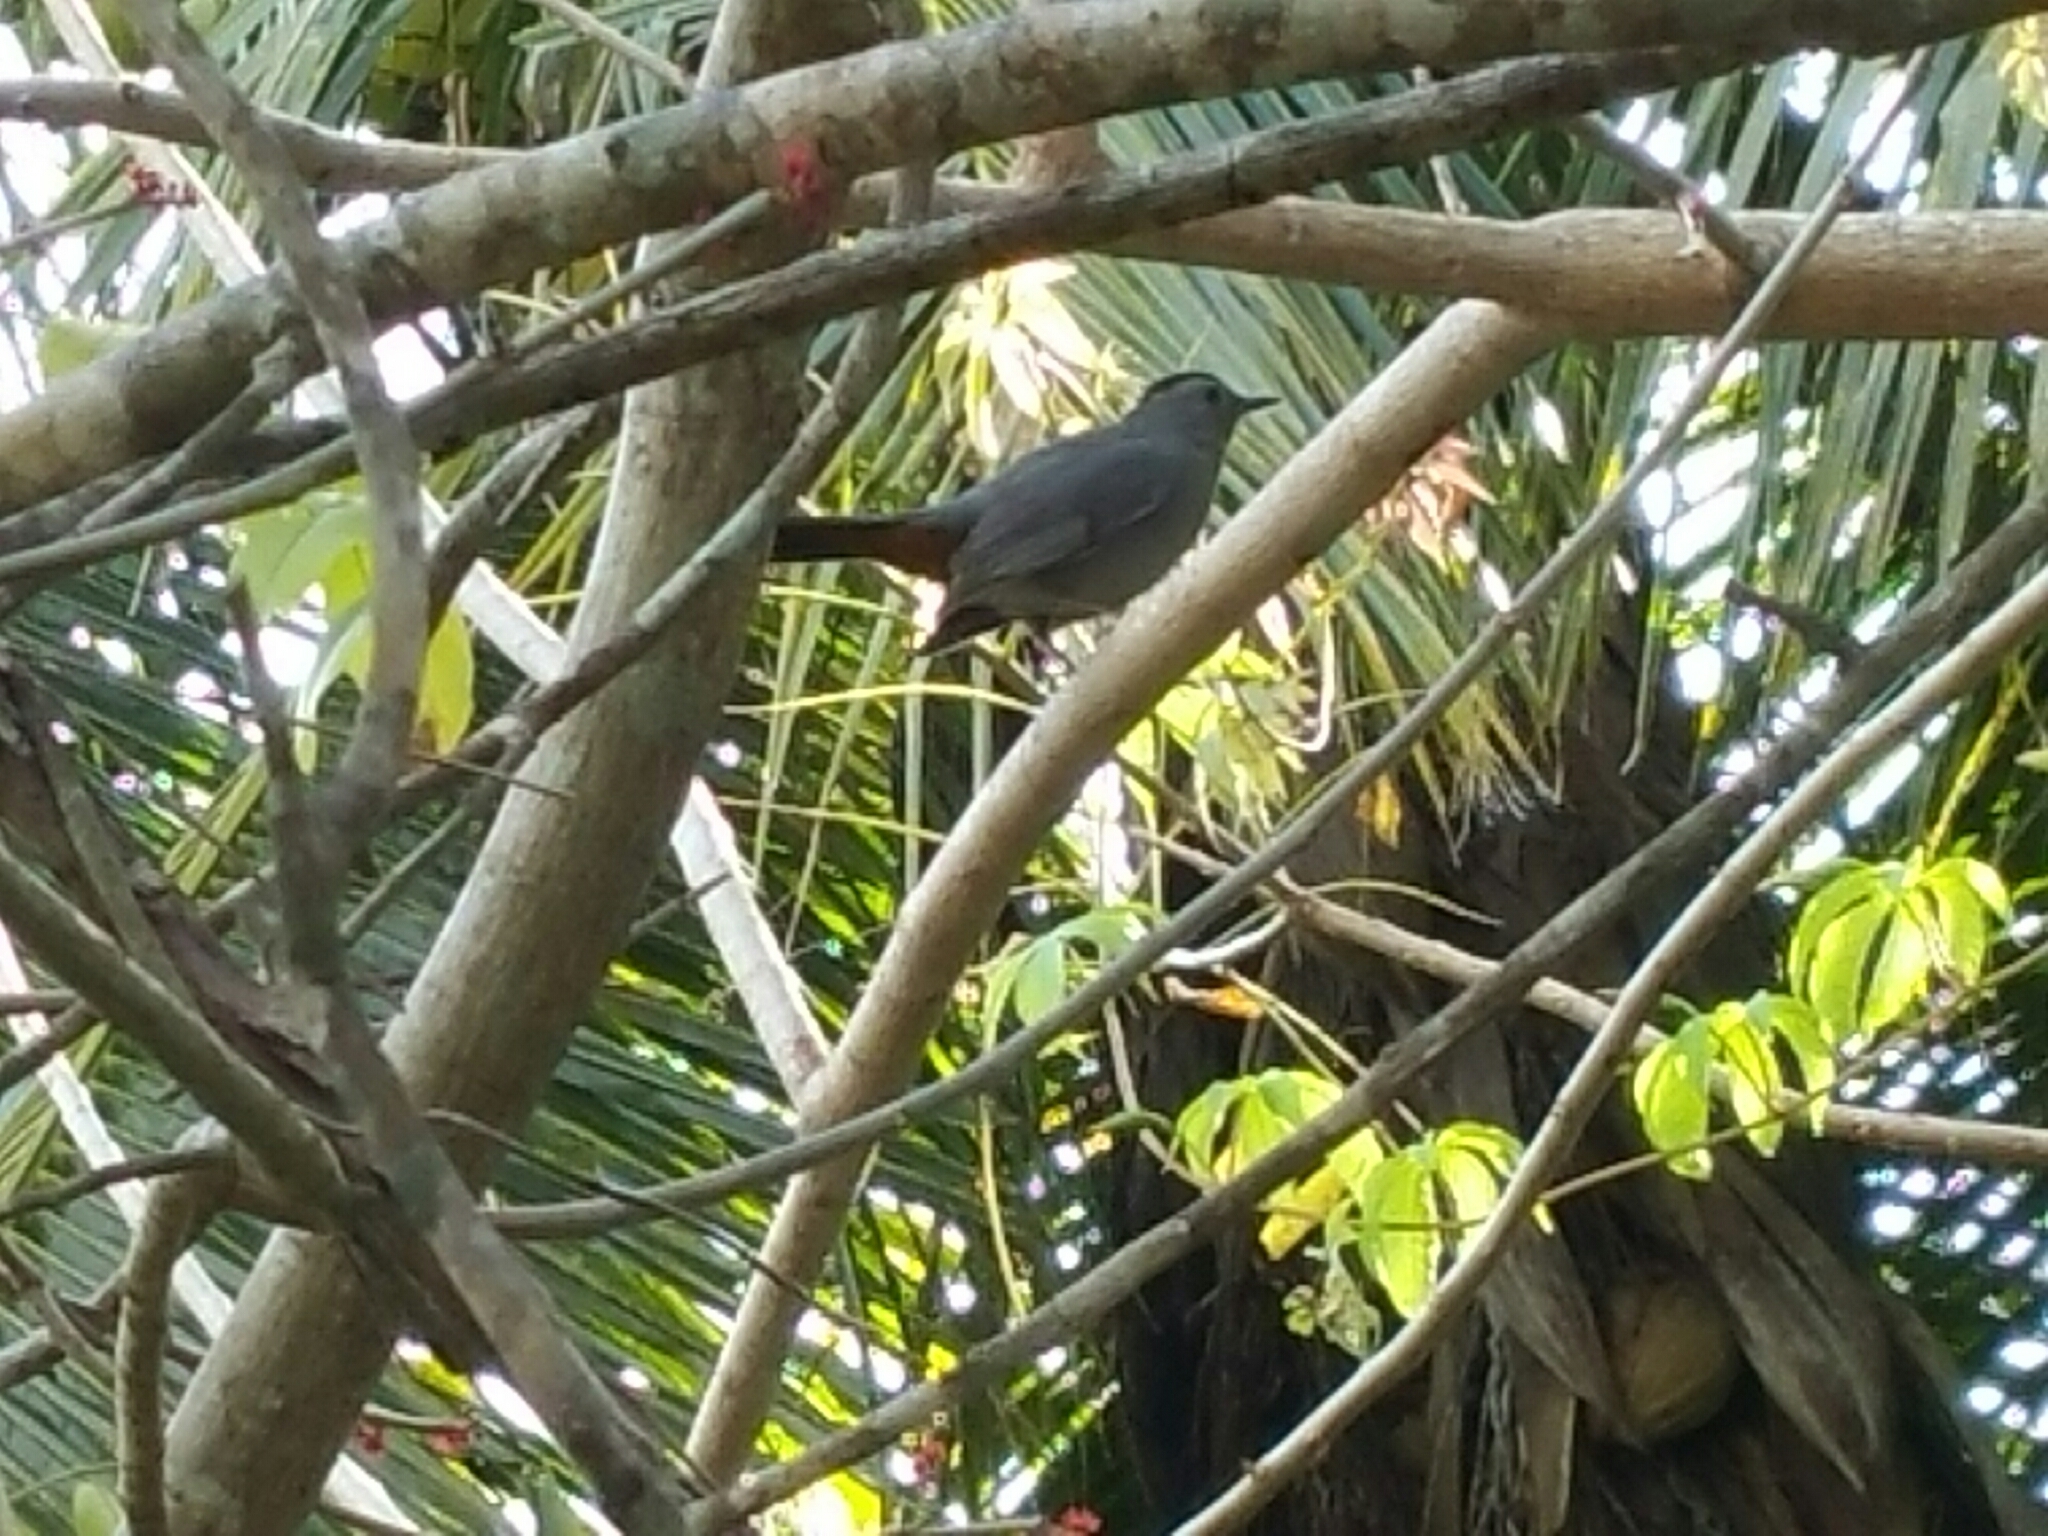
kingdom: Animalia
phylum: Chordata
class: Aves
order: Passeriformes
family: Mimidae
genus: Dumetella
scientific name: Dumetella carolinensis
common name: Gray catbird
